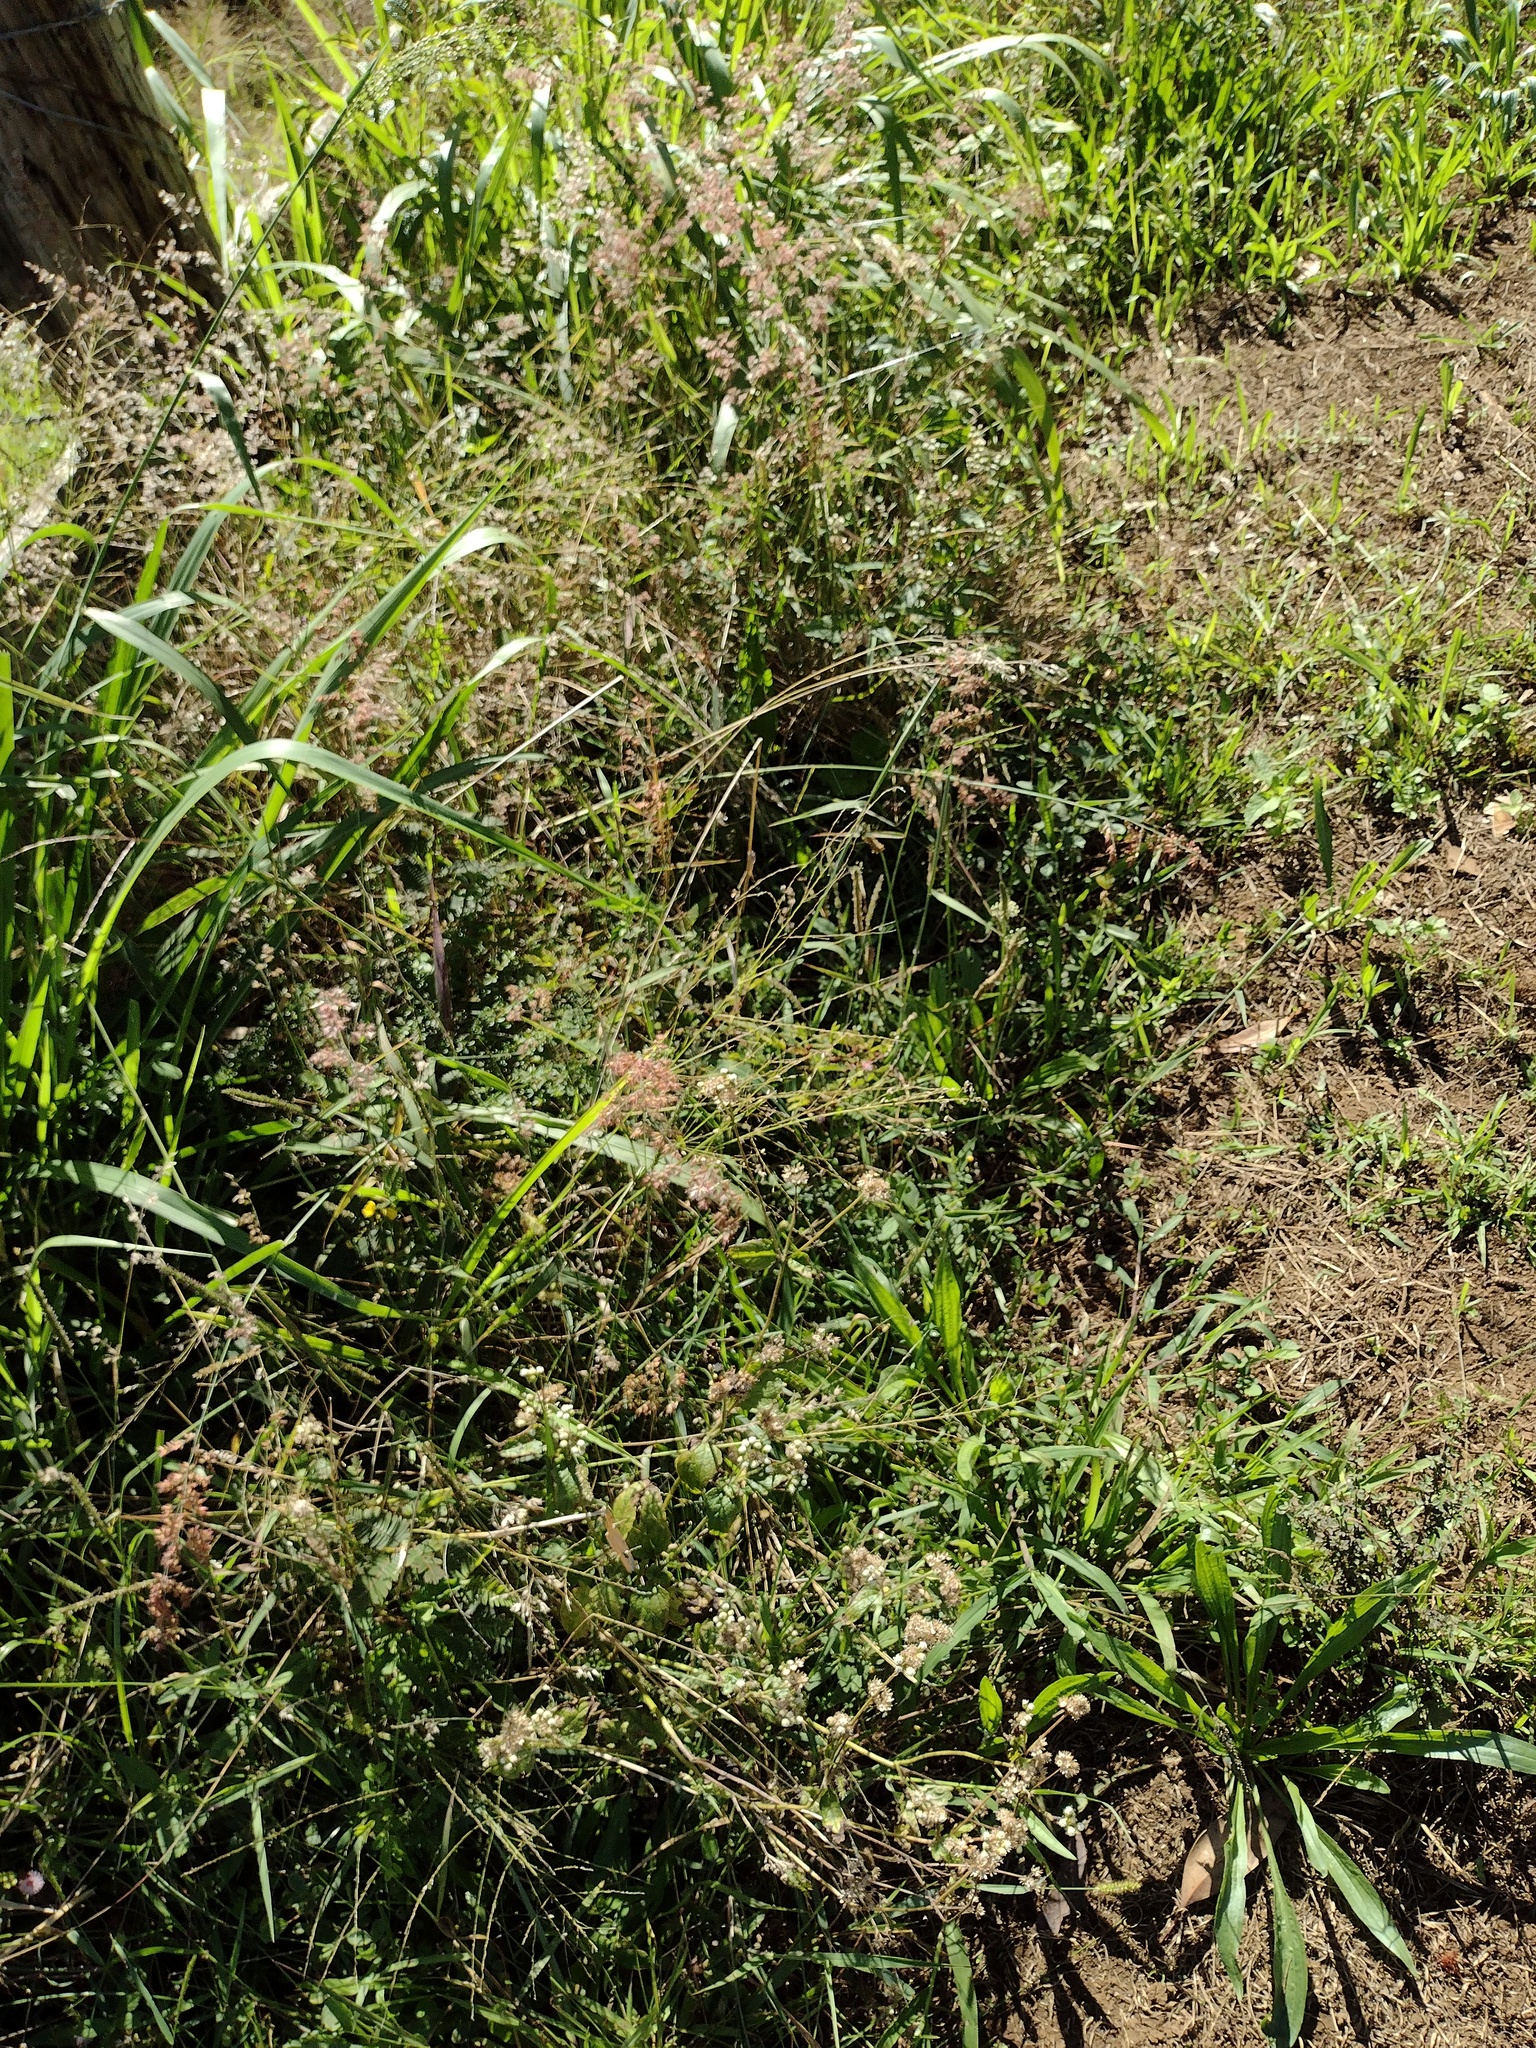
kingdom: Plantae
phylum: Tracheophyta
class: Liliopsida
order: Poales
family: Poaceae
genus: Melinis
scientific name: Melinis repens
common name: Rose natal grass
